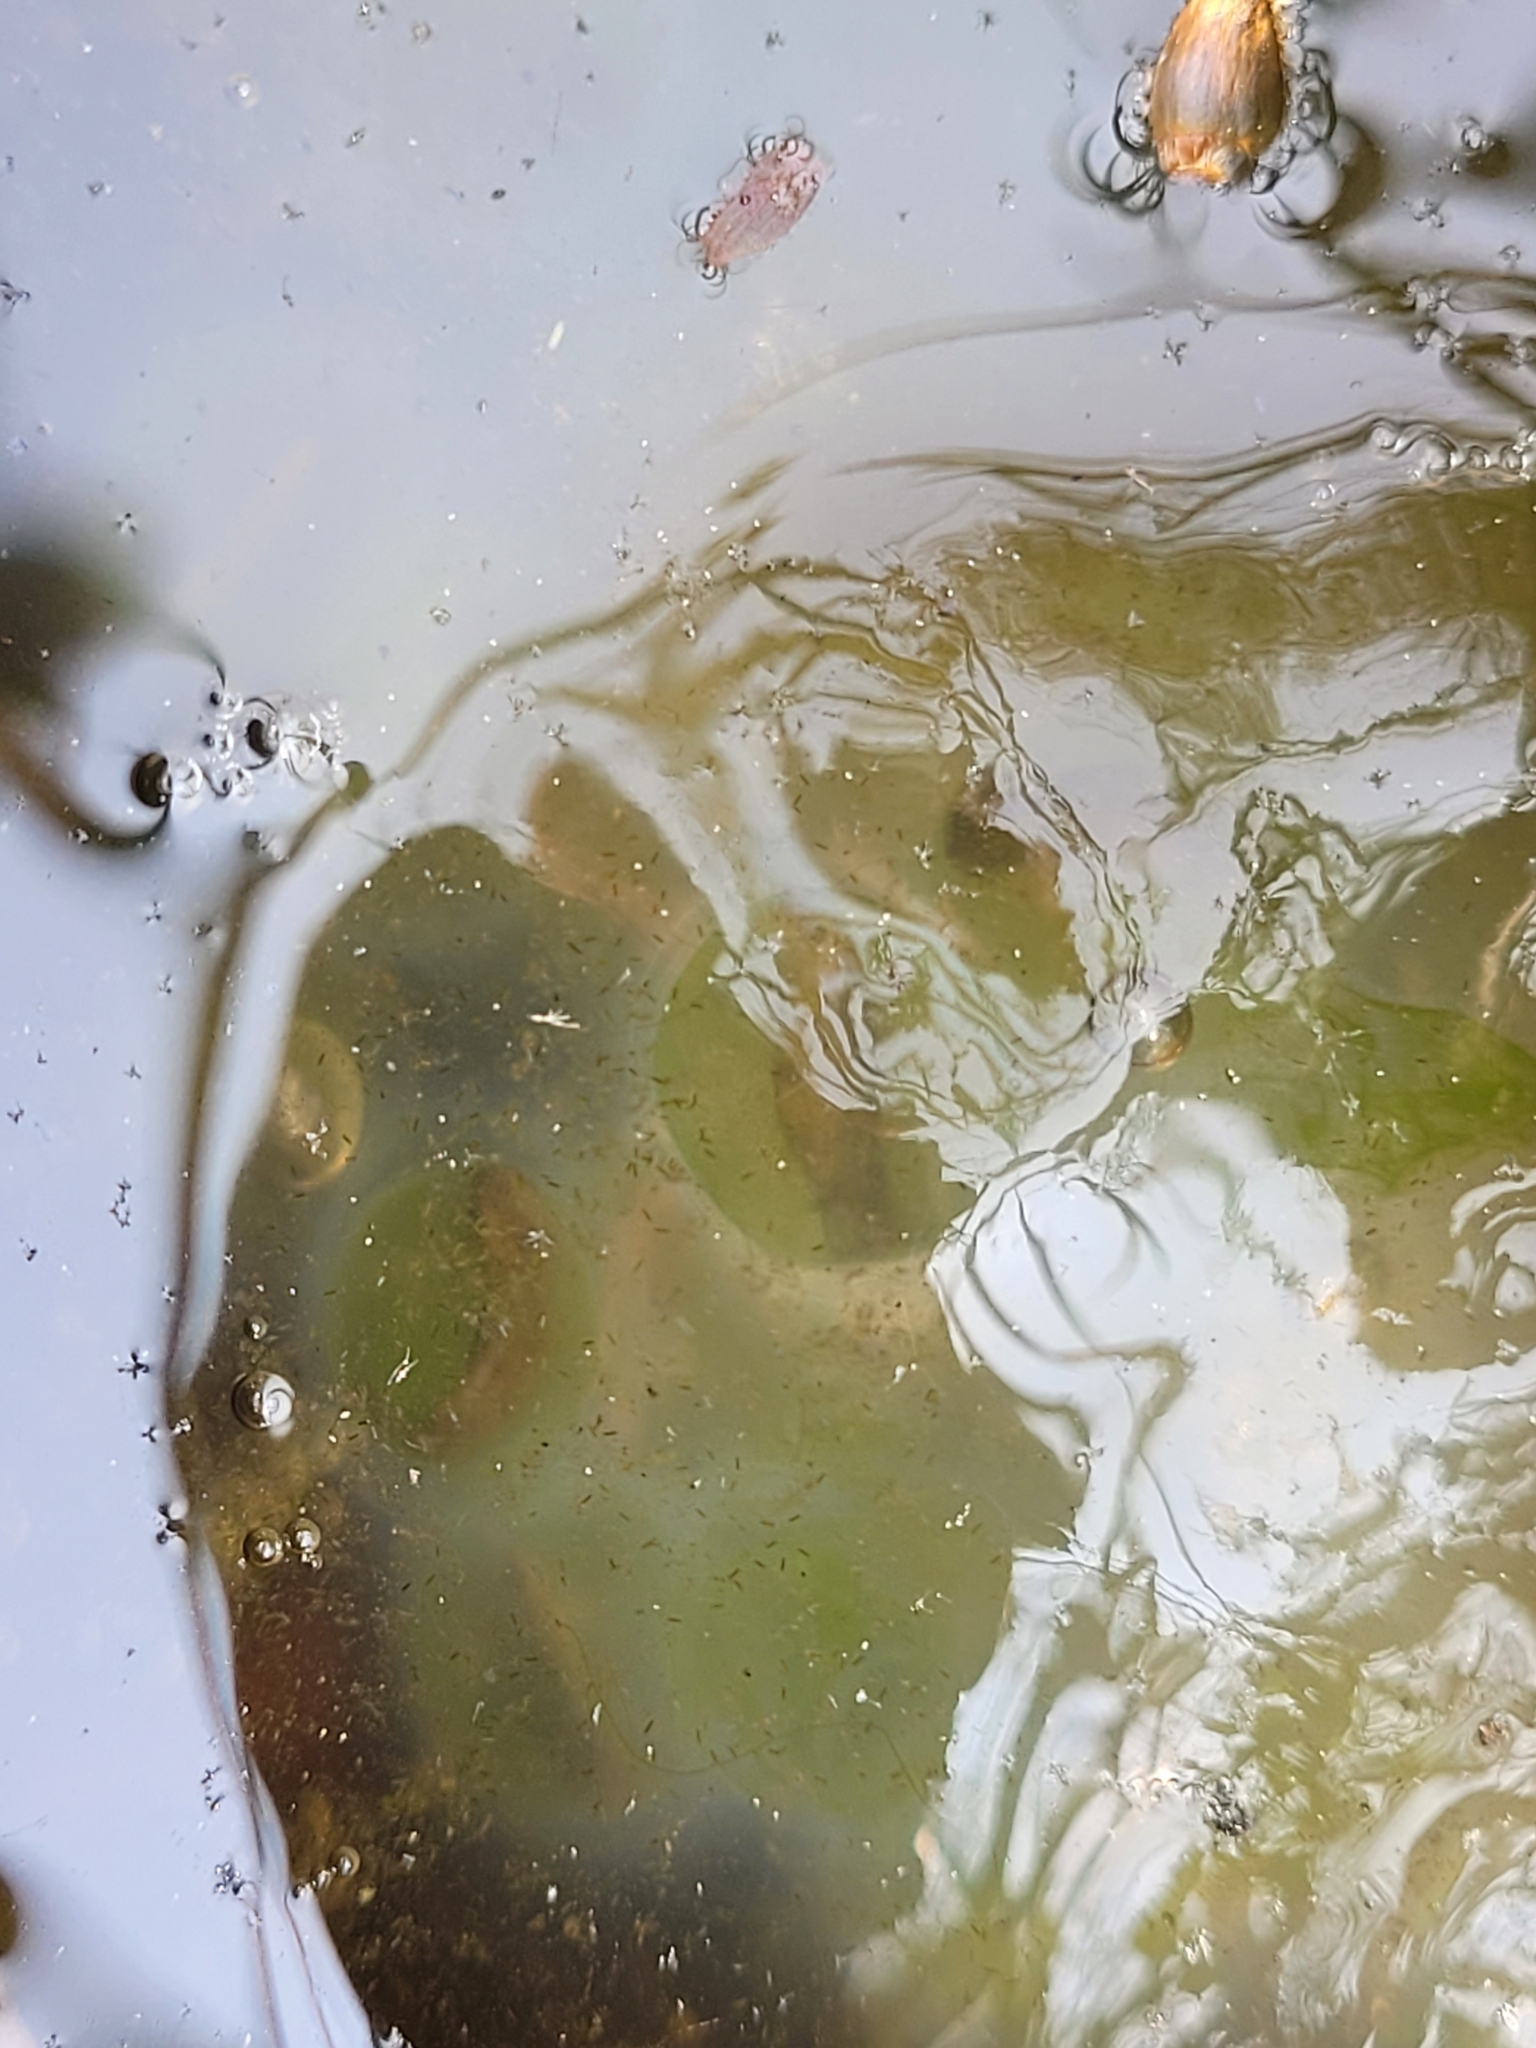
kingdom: Animalia
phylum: Chordata
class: Amphibia
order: Caudata
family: Ambystomatidae
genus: Ambystoma
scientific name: Ambystoma maculatum
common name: Spotted salamander
